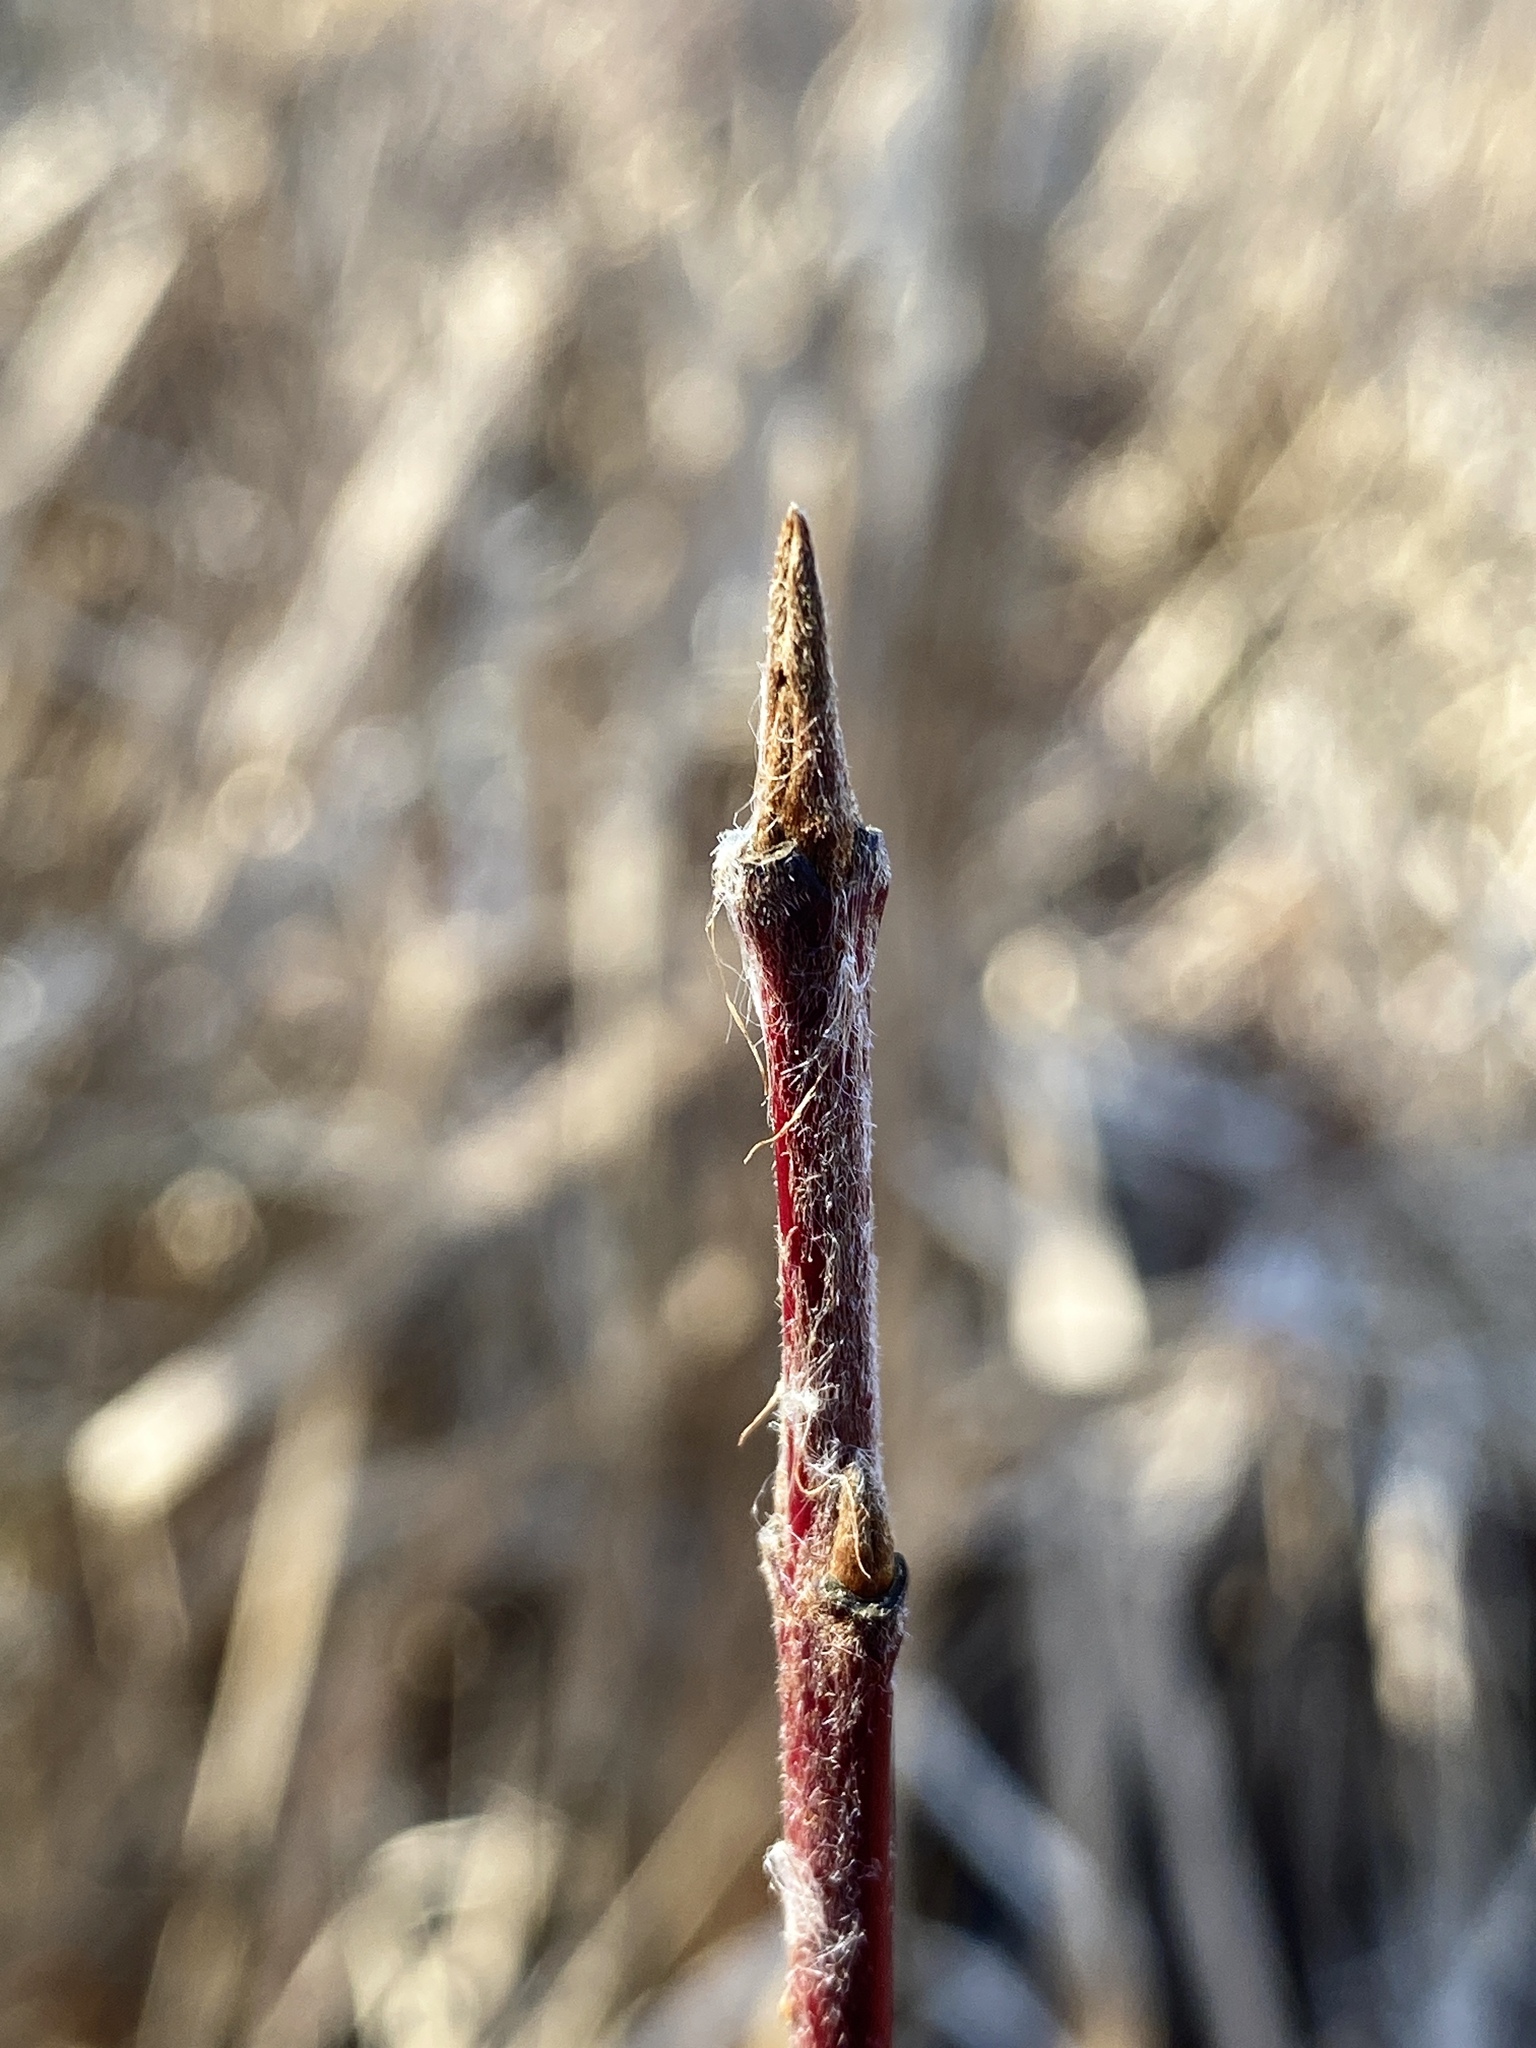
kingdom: Plantae
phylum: Tracheophyta
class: Magnoliopsida
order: Cornales
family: Cornaceae
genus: Cornus
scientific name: Cornus amomum
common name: Silky dogwood
